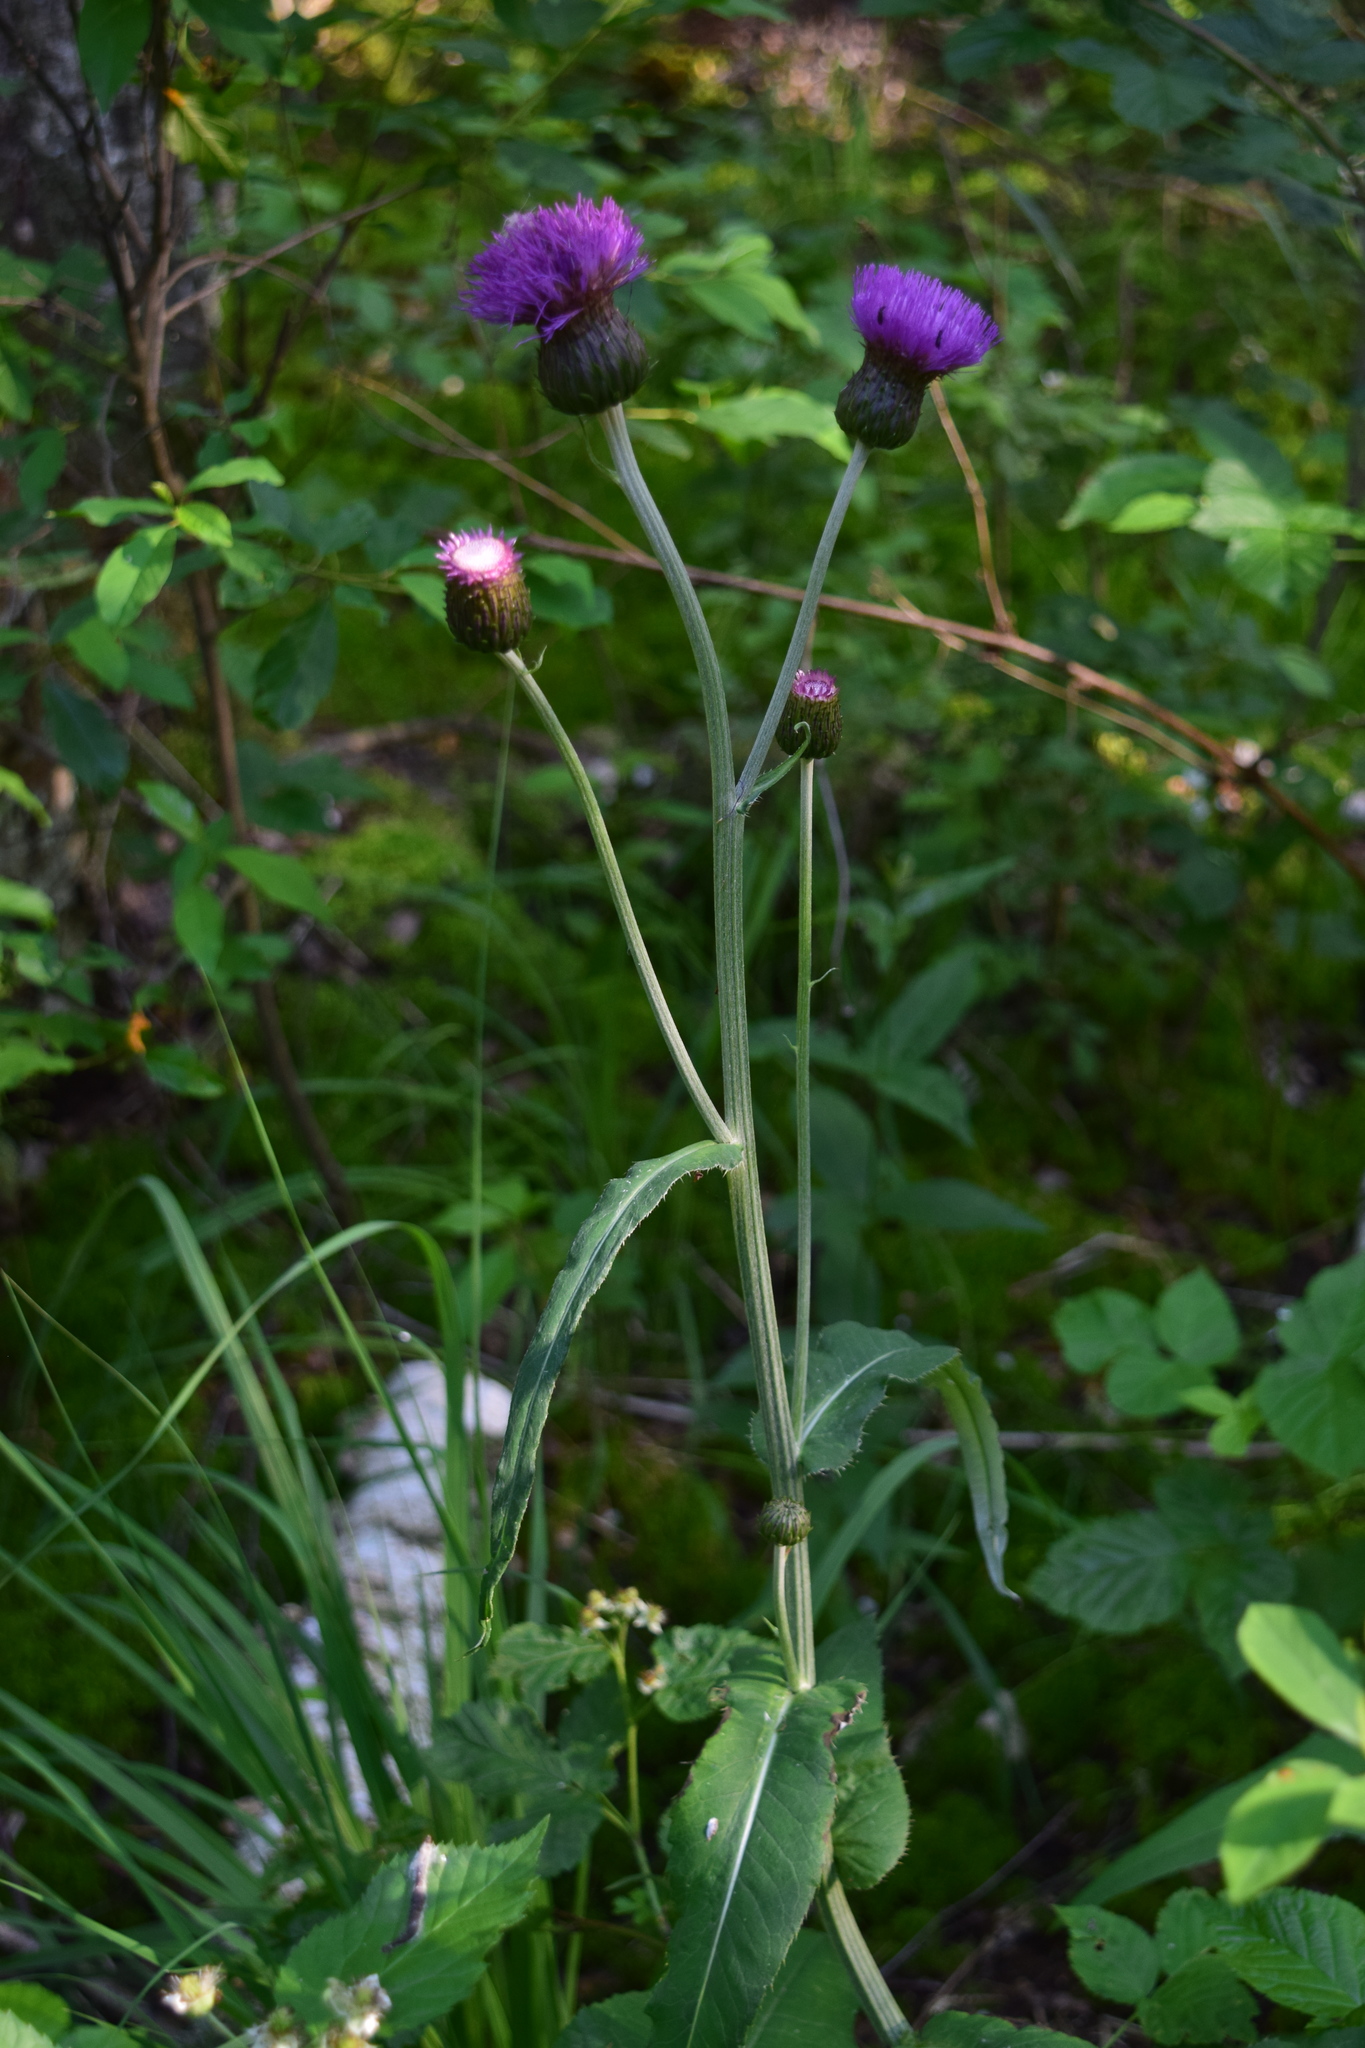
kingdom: Plantae
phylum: Tracheophyta
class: Magnoliopsida
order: Asterales
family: Asteraceae
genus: Cirsium
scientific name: Cirsium heterophyllum
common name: Melancholy thistle
